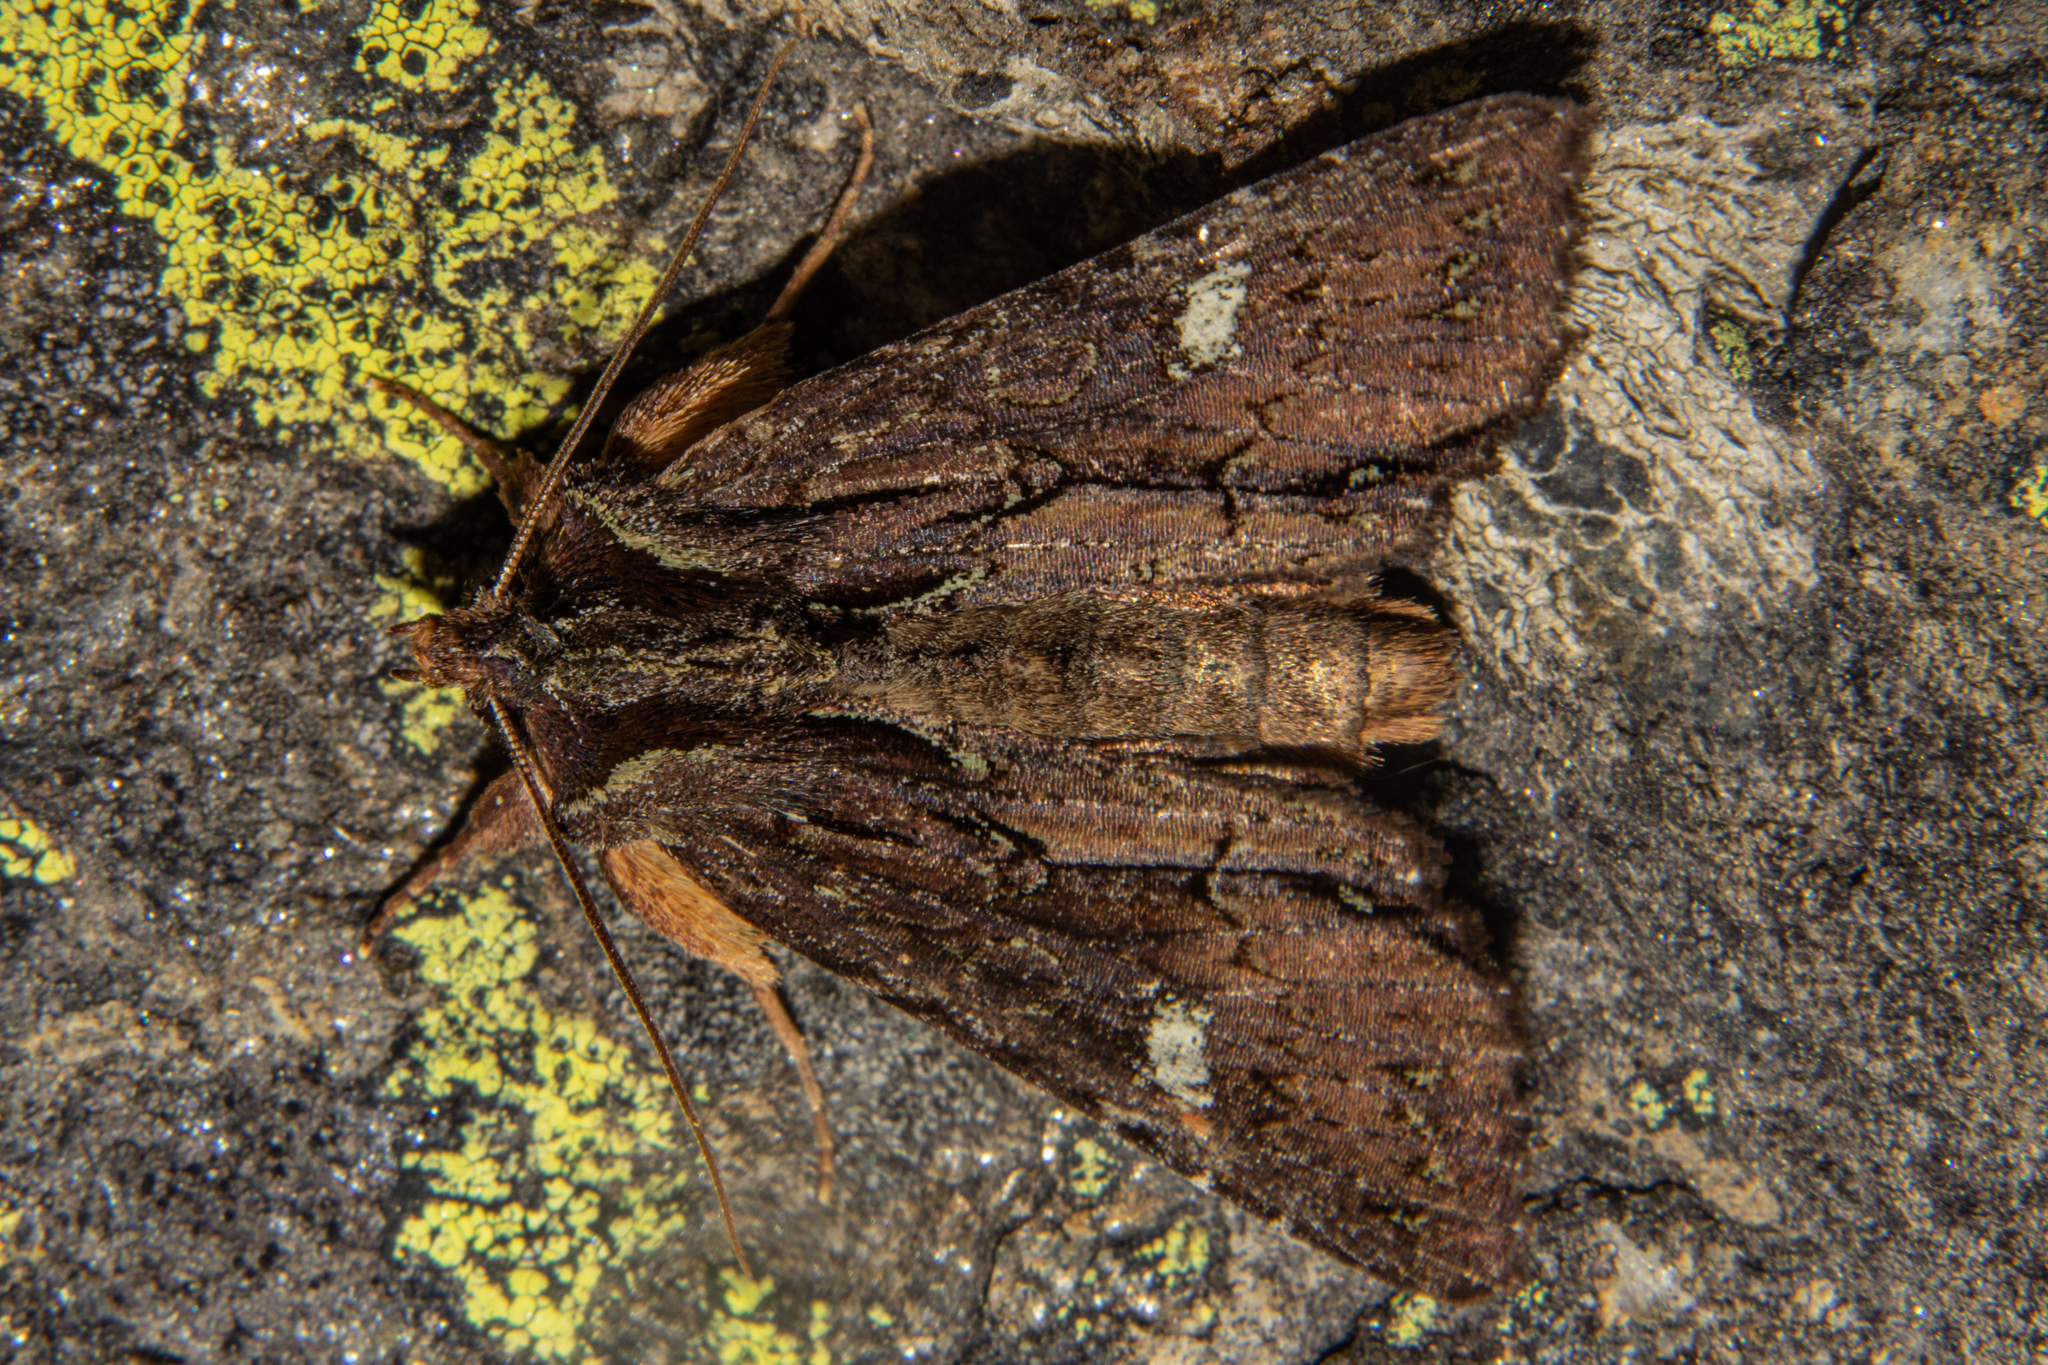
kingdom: Animalia
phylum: Arthropoda
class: Insecta
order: Lepidoptera
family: Noctuidae
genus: Meterana
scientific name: Meterana diatmeta
